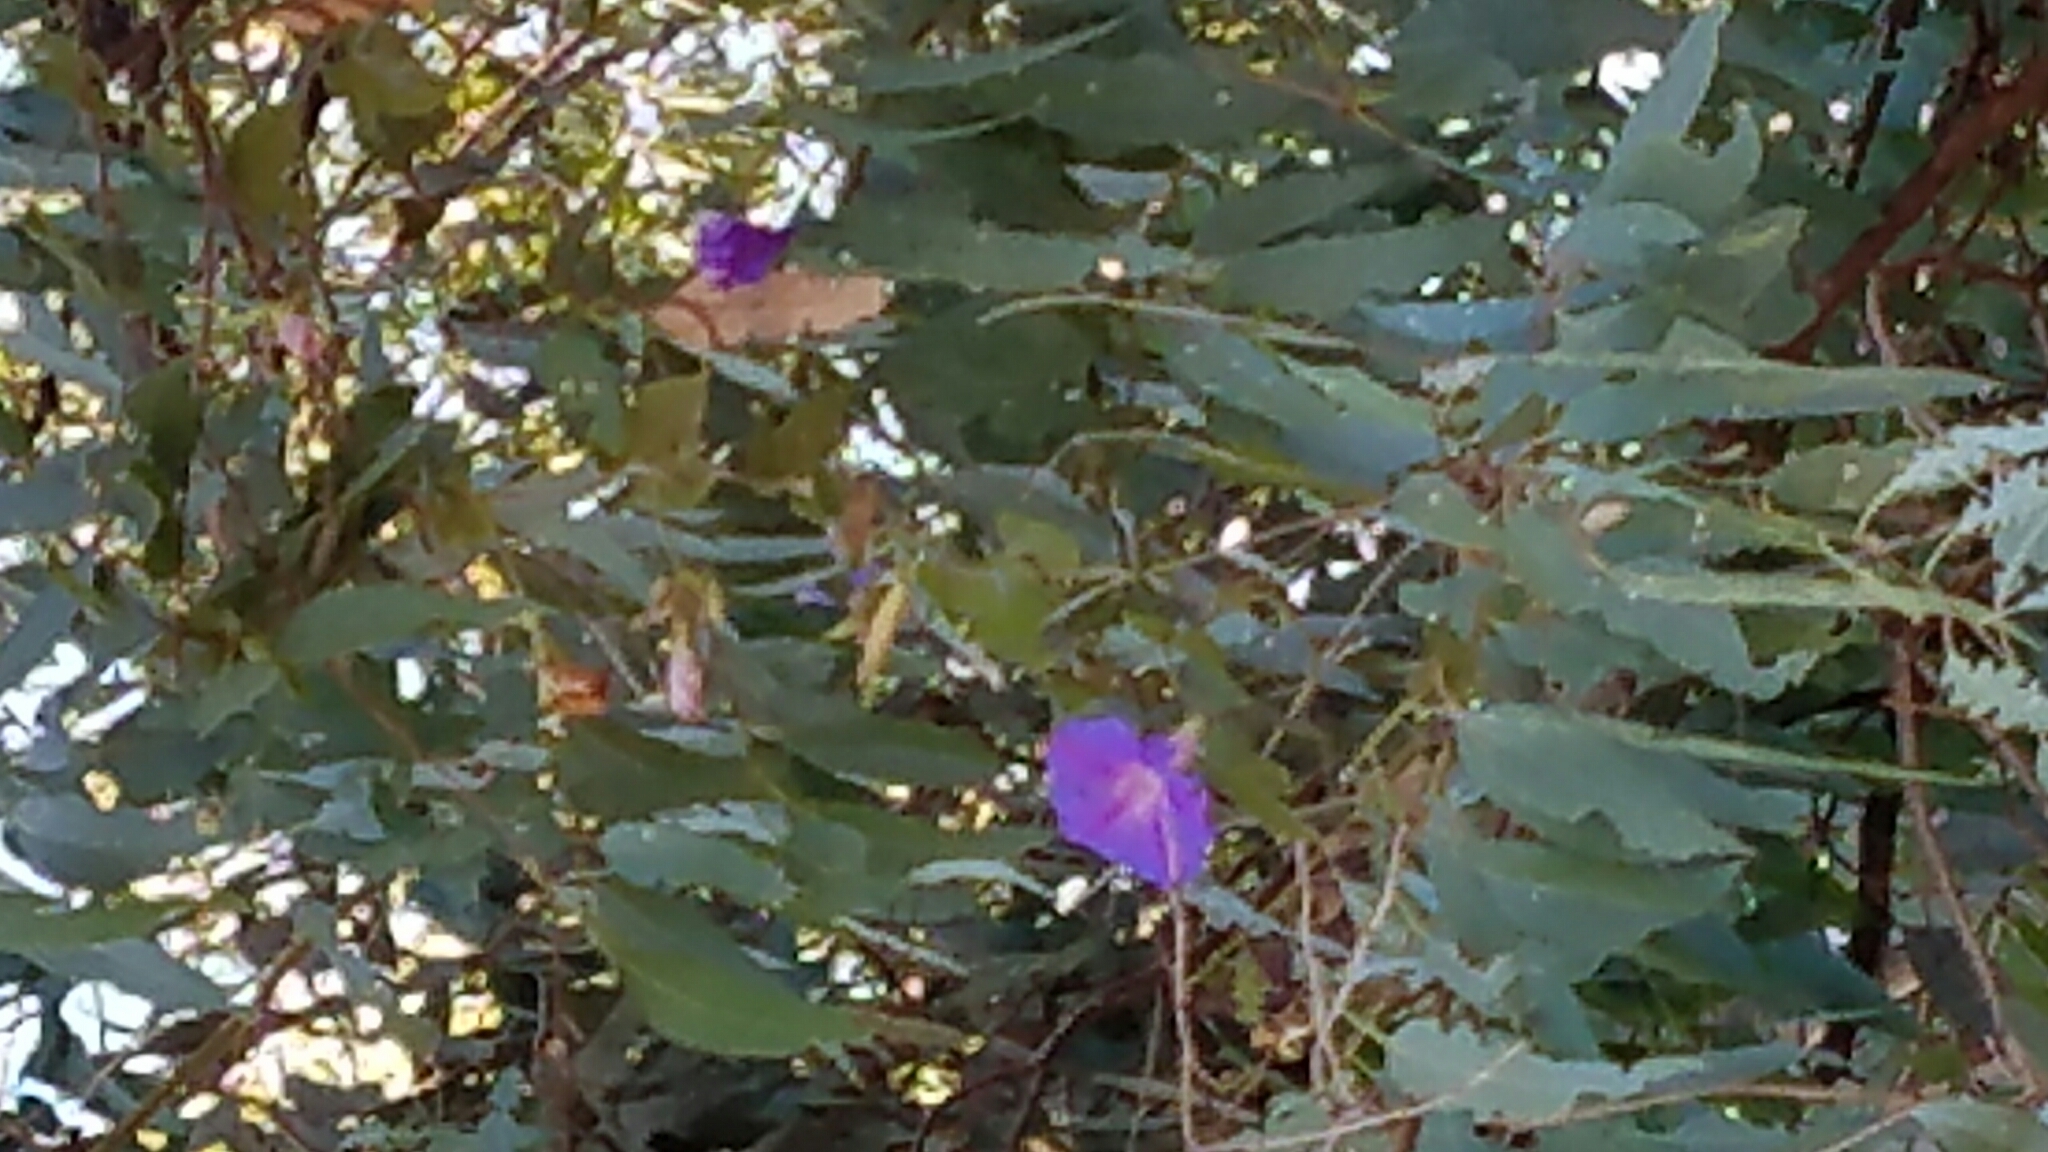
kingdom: Plantae
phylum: Tracheophyta
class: Magnoliopsida
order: Solanales
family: Convolvulaceae
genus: Ipomoea
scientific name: Ipomoea indica
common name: Blue dawnflower
